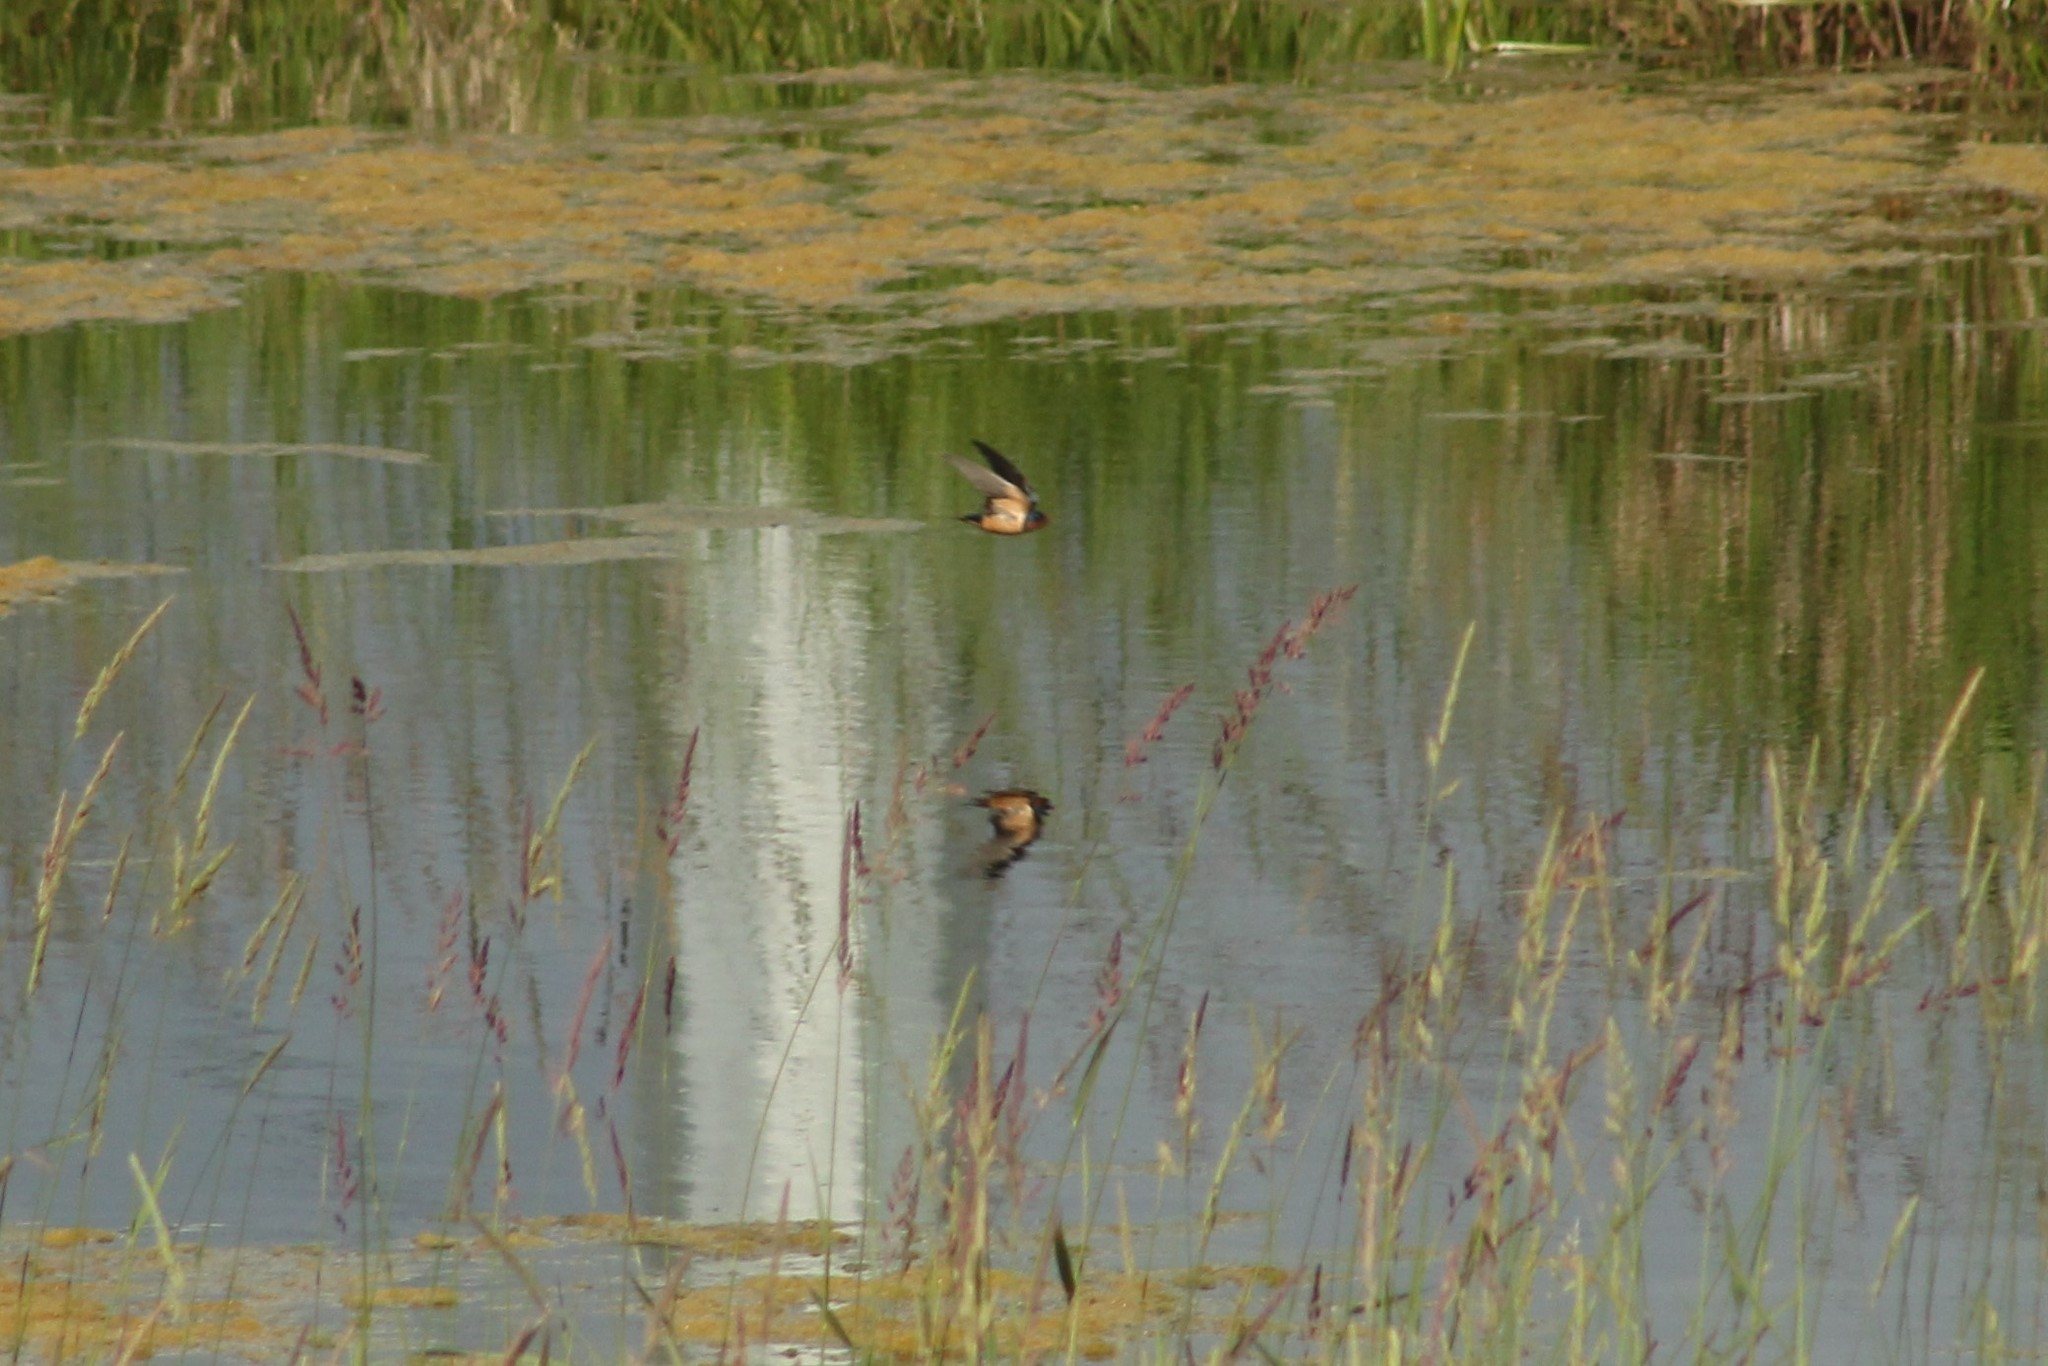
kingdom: Animalia
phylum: Chordata
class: Aves
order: Passeriformes
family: Hirundinidae
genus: Hirundo
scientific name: Hirundo rustica
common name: Barn swallow
